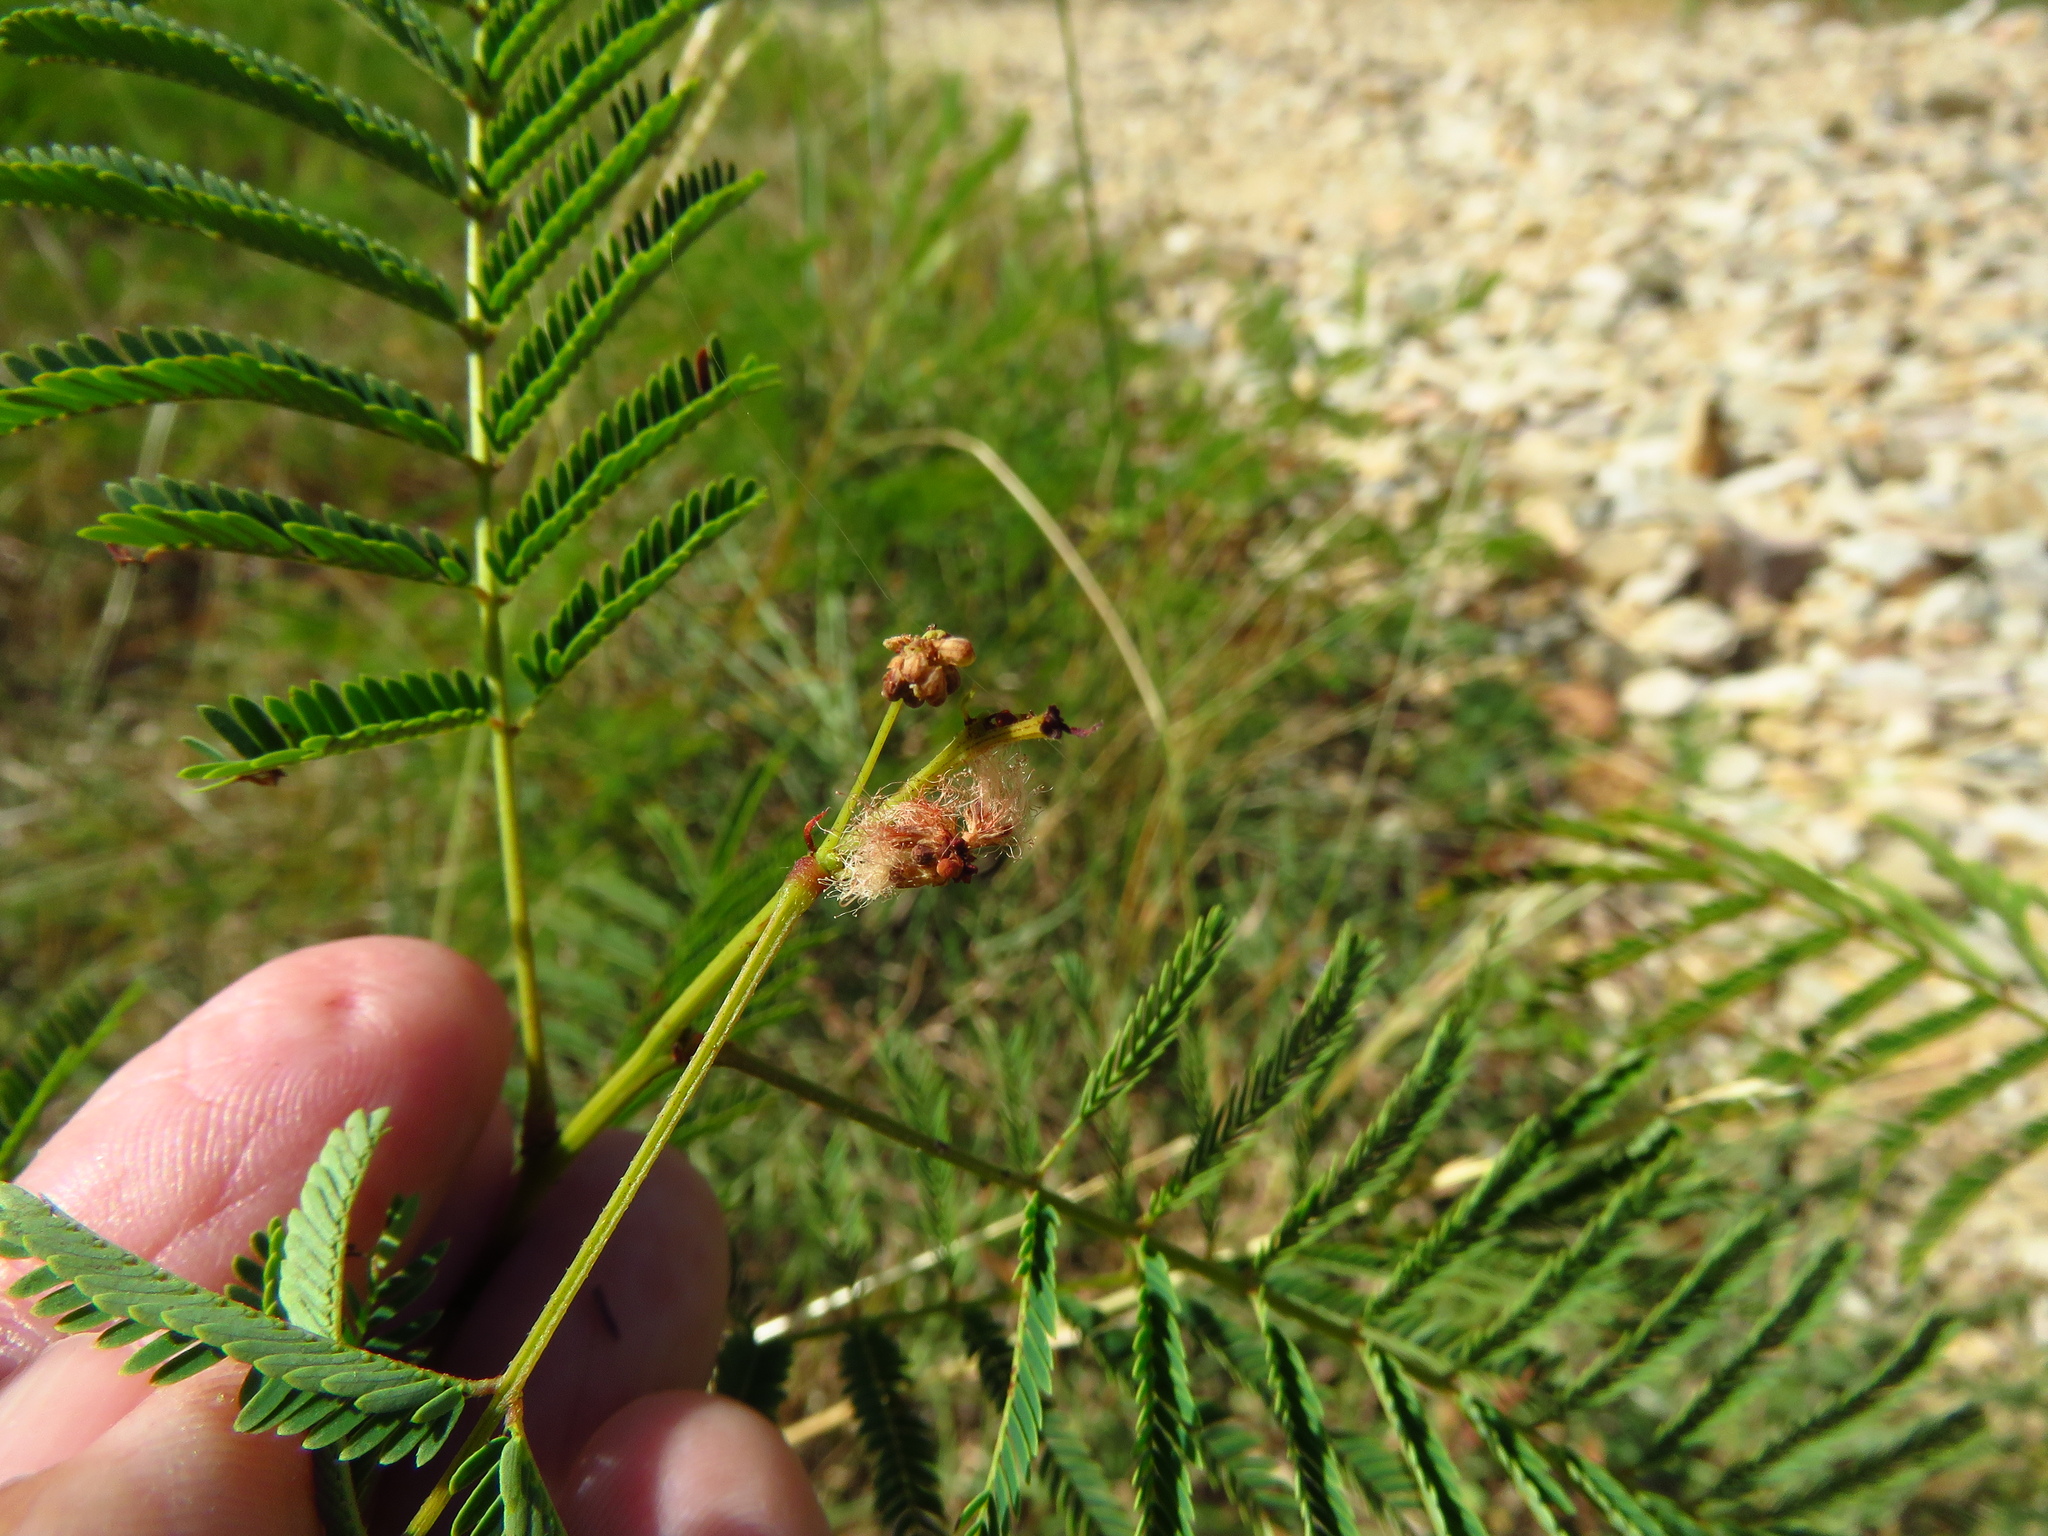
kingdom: Plantae
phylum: Tracheophyta
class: Magnoliopsida
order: Fabales
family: Fabaceae
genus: Acaciella
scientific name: Acaciella angustissima
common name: Prairie acacia
